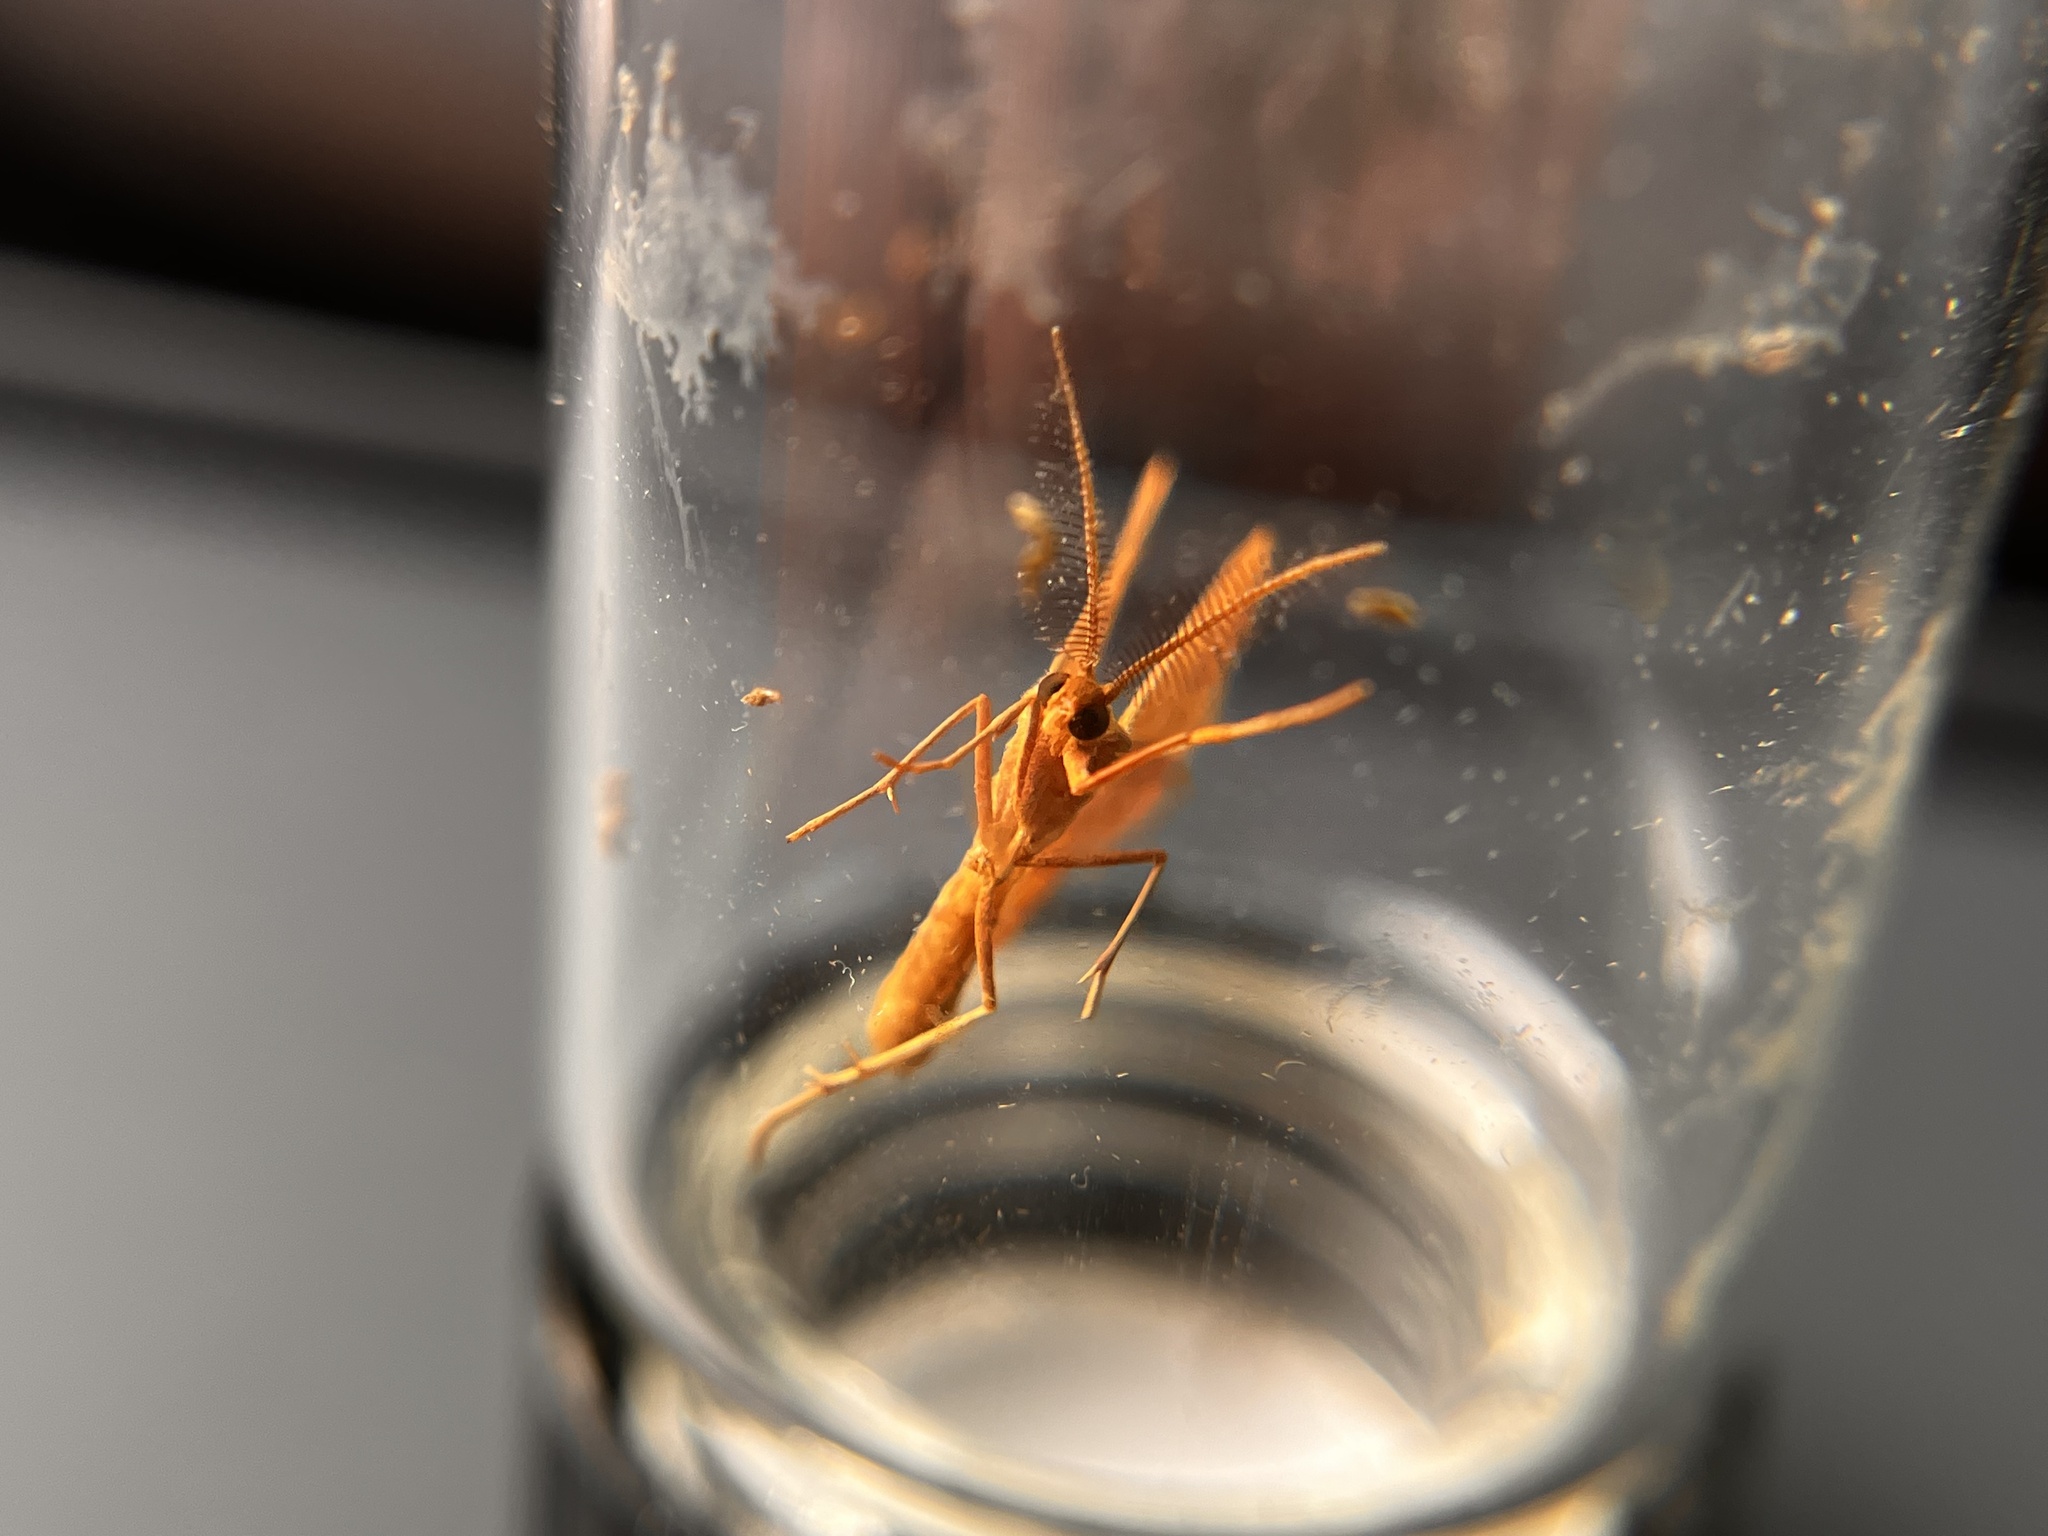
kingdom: Animalia
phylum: Arthropoda
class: Insecta
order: Lepidoptera
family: Geometridae
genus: Haematopis
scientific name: Haematopis grataria
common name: Chickweed geometer
